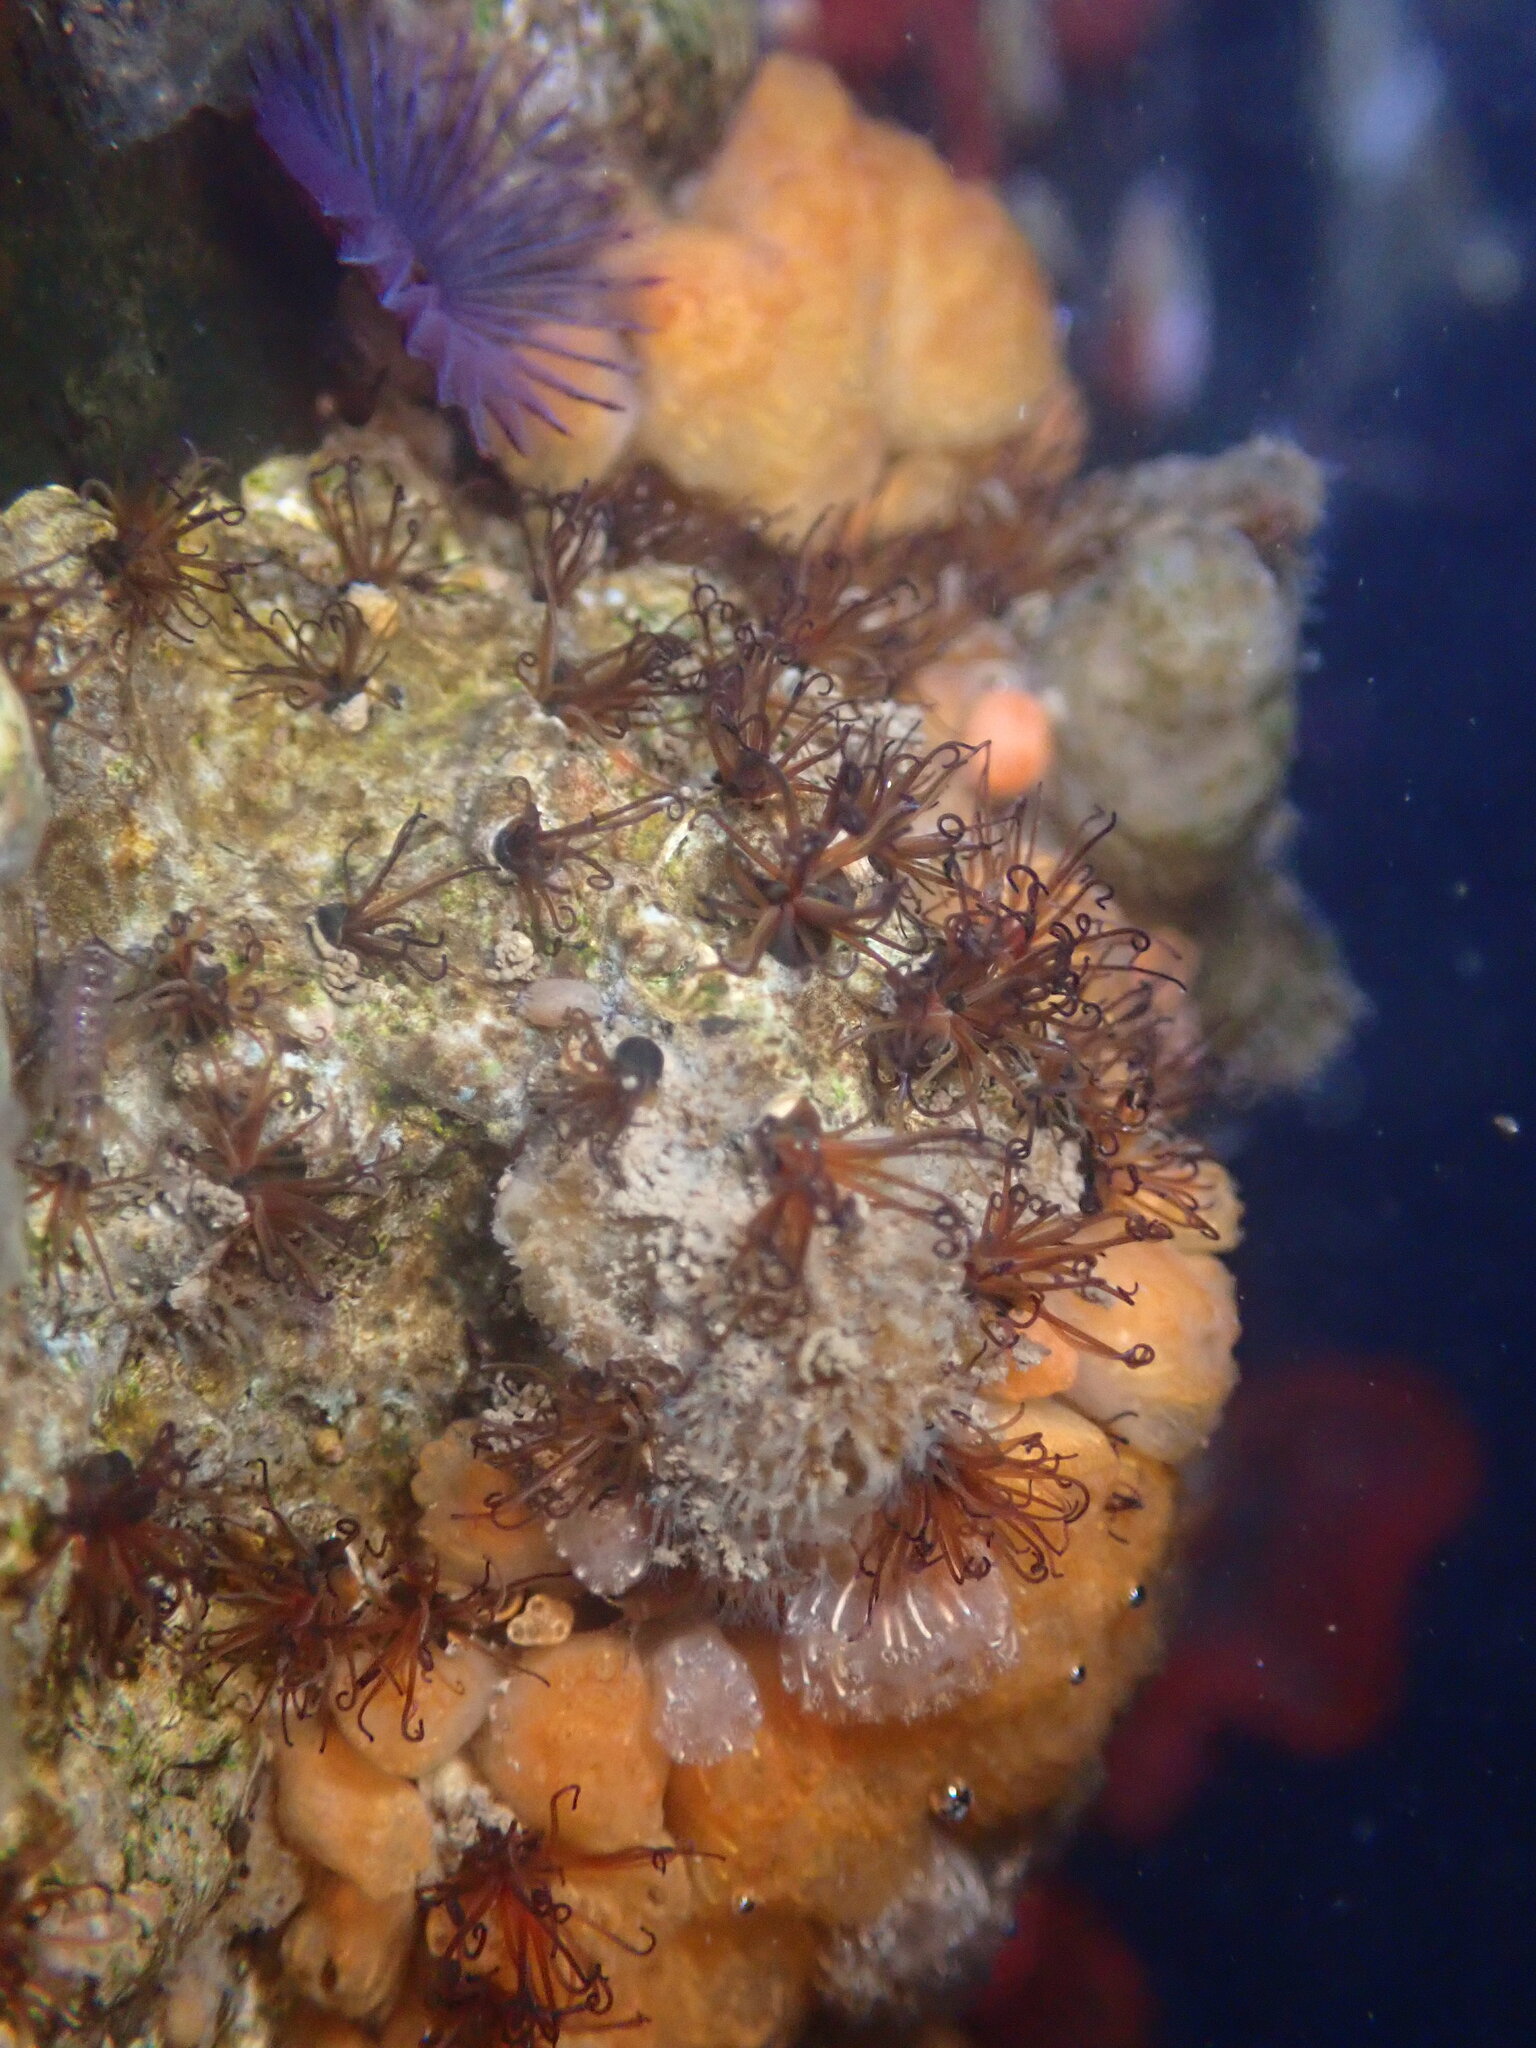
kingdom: Animalia
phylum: Annelida
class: Polychaeta
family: Cirratulidae
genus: Dodecaceria
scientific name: Dodecaceria pacifica
